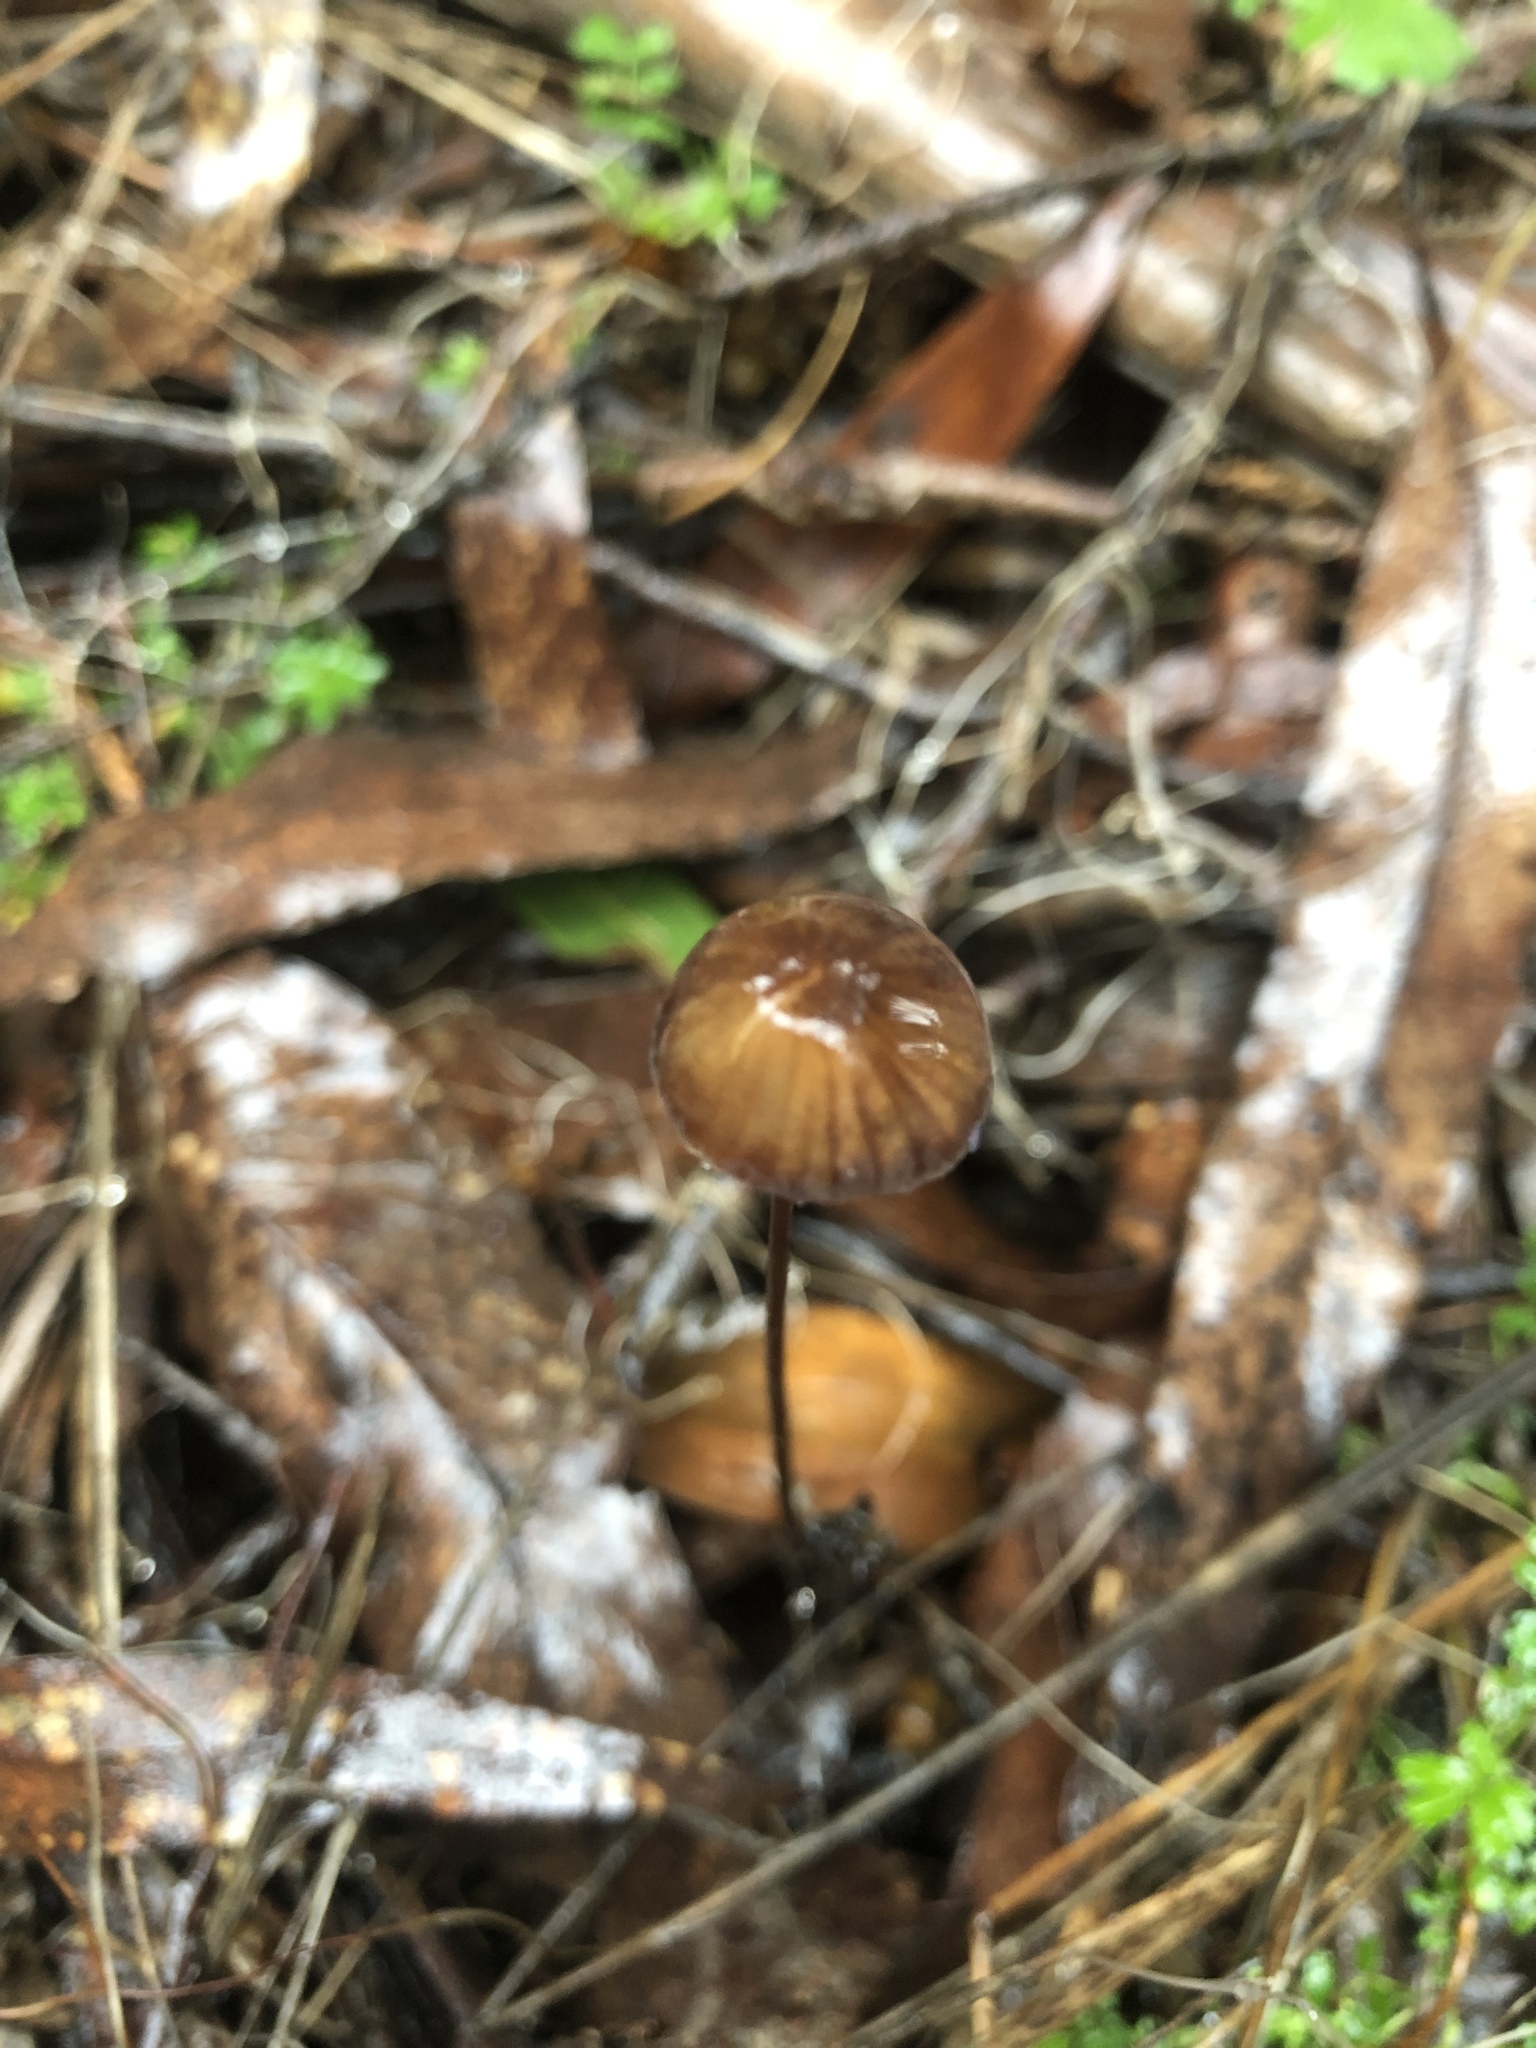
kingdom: Fungi
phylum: Basidiomycota
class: Agaricomycetes
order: Agaricales
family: Mycenaceae
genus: Mycena
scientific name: Mycena cystidiosa
